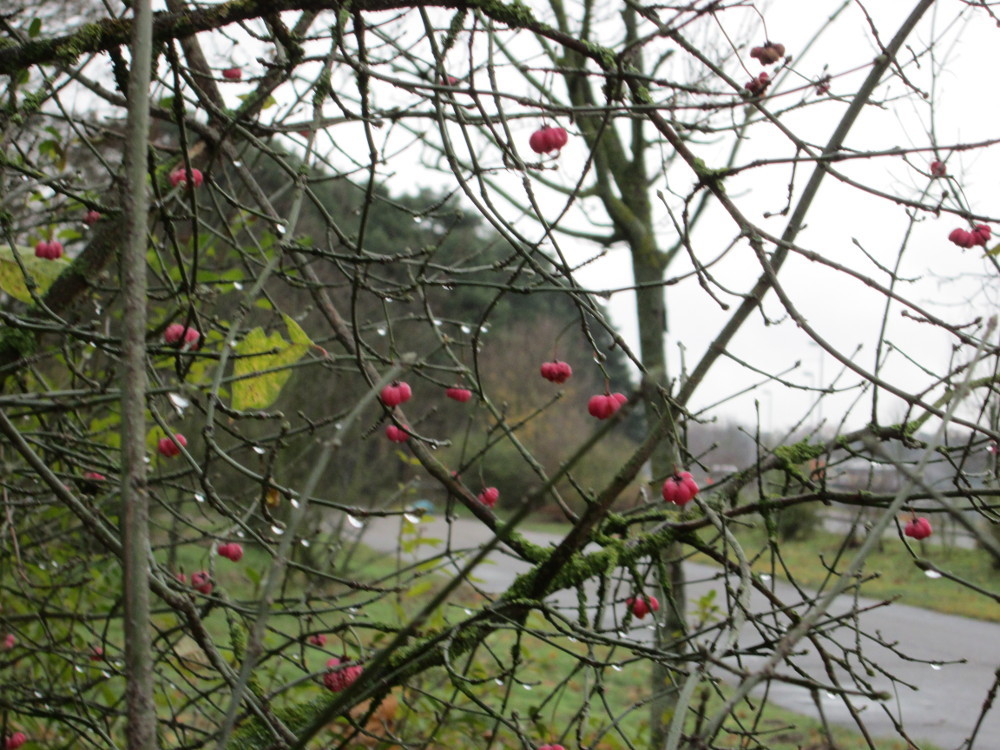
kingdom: Plantae
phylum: Tracheophyta
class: Magnoliopsida
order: Celastrales
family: Celastraceae
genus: Euonymus
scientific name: Euonymus europaeus
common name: Spindle
